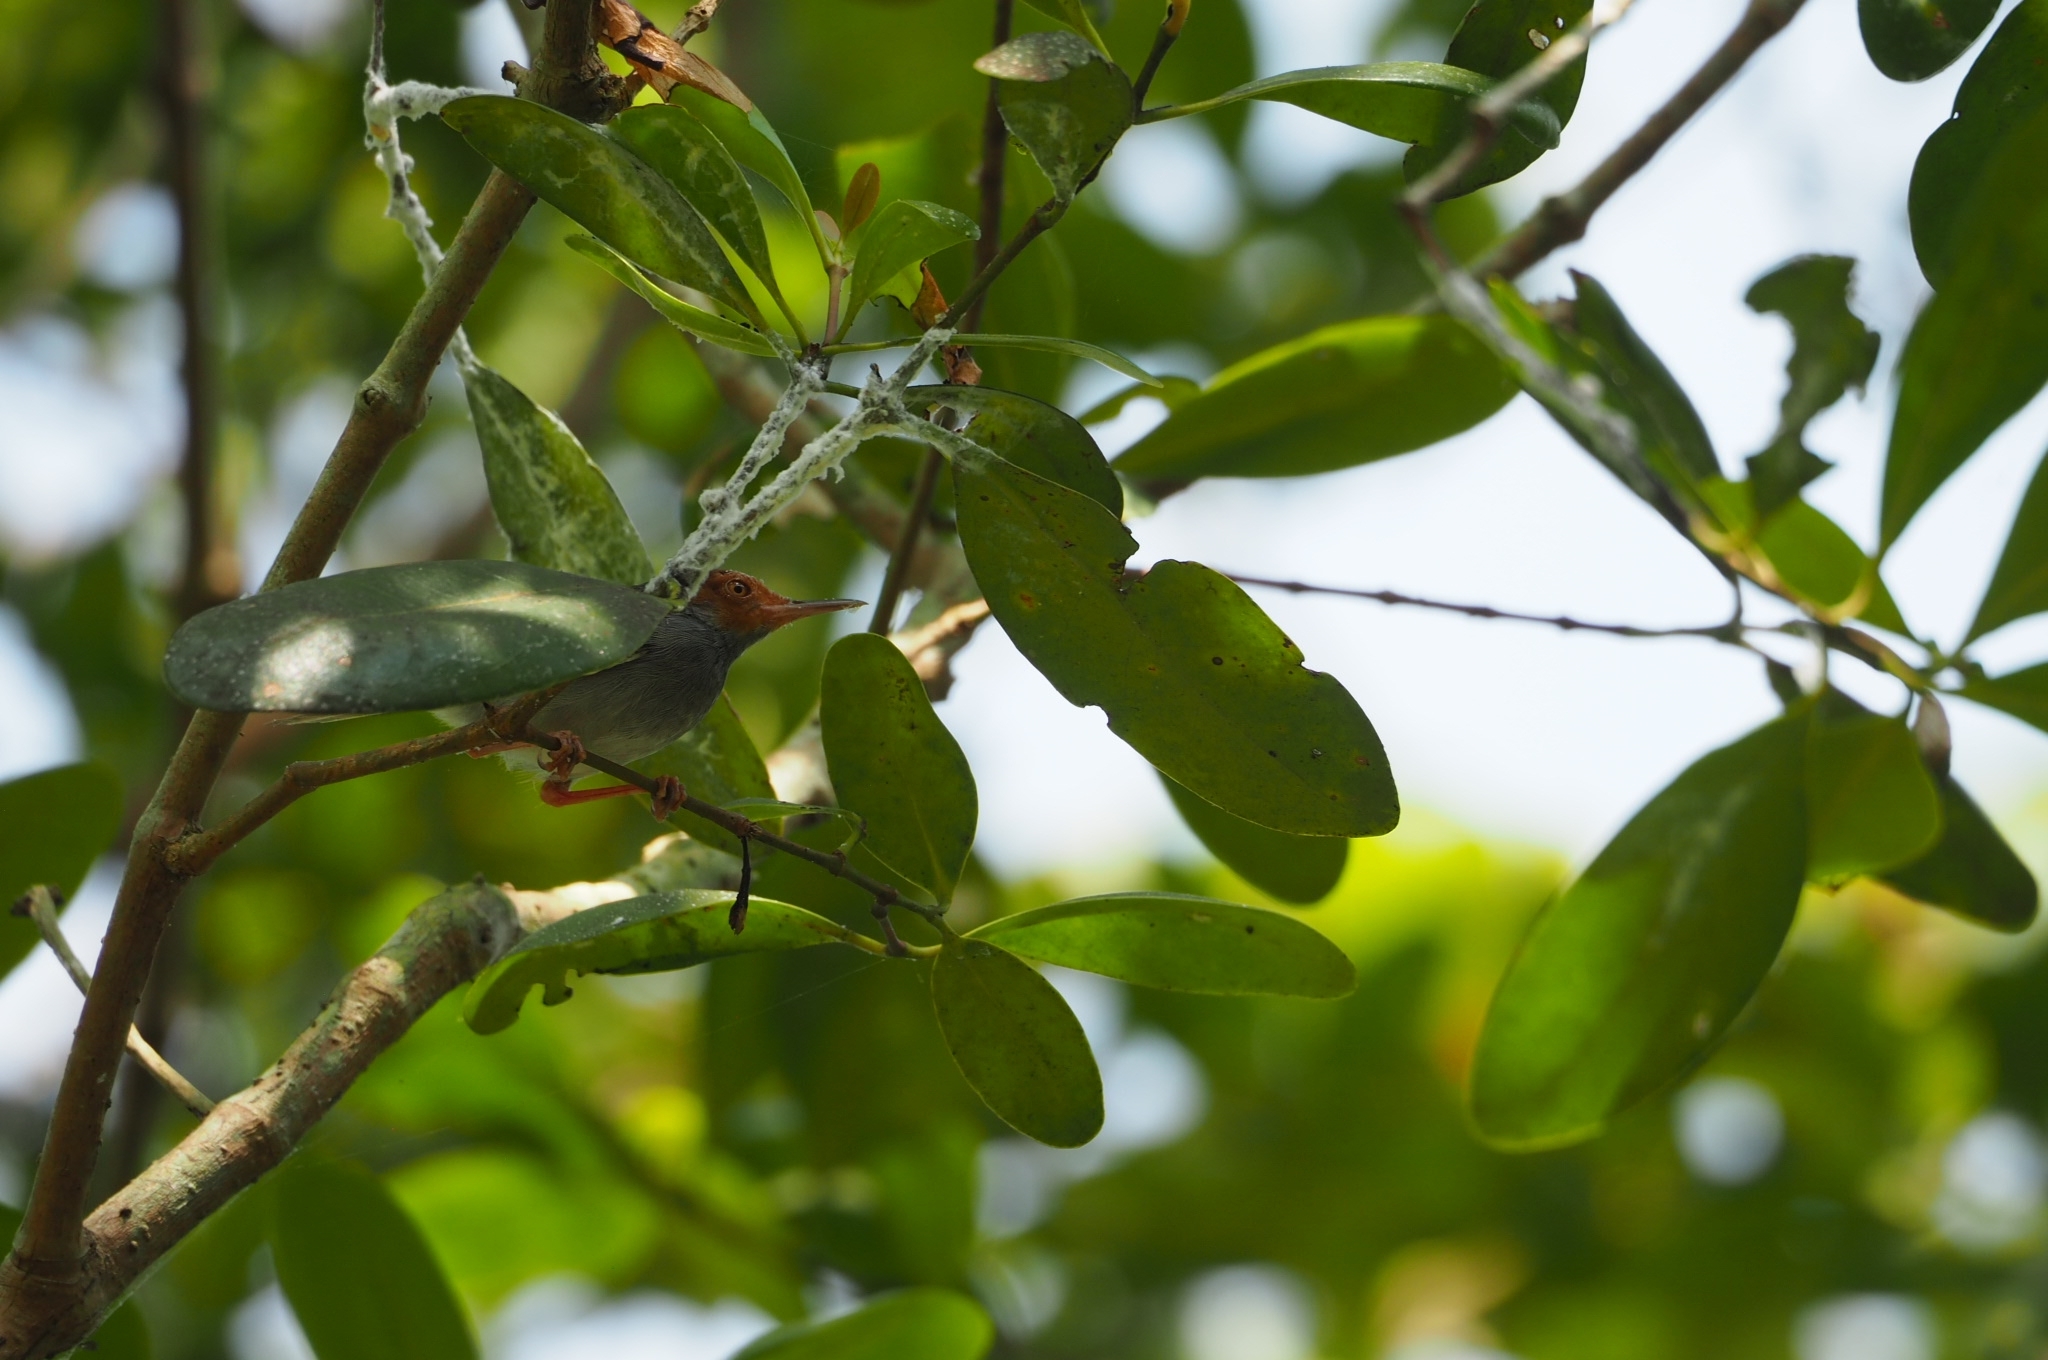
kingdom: Animalia
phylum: Chordata
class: Aves
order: Passeriformes
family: Cisticolidae
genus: Orthotomus
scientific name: Orthotomus ruficeps
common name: Ashy tailorbird
